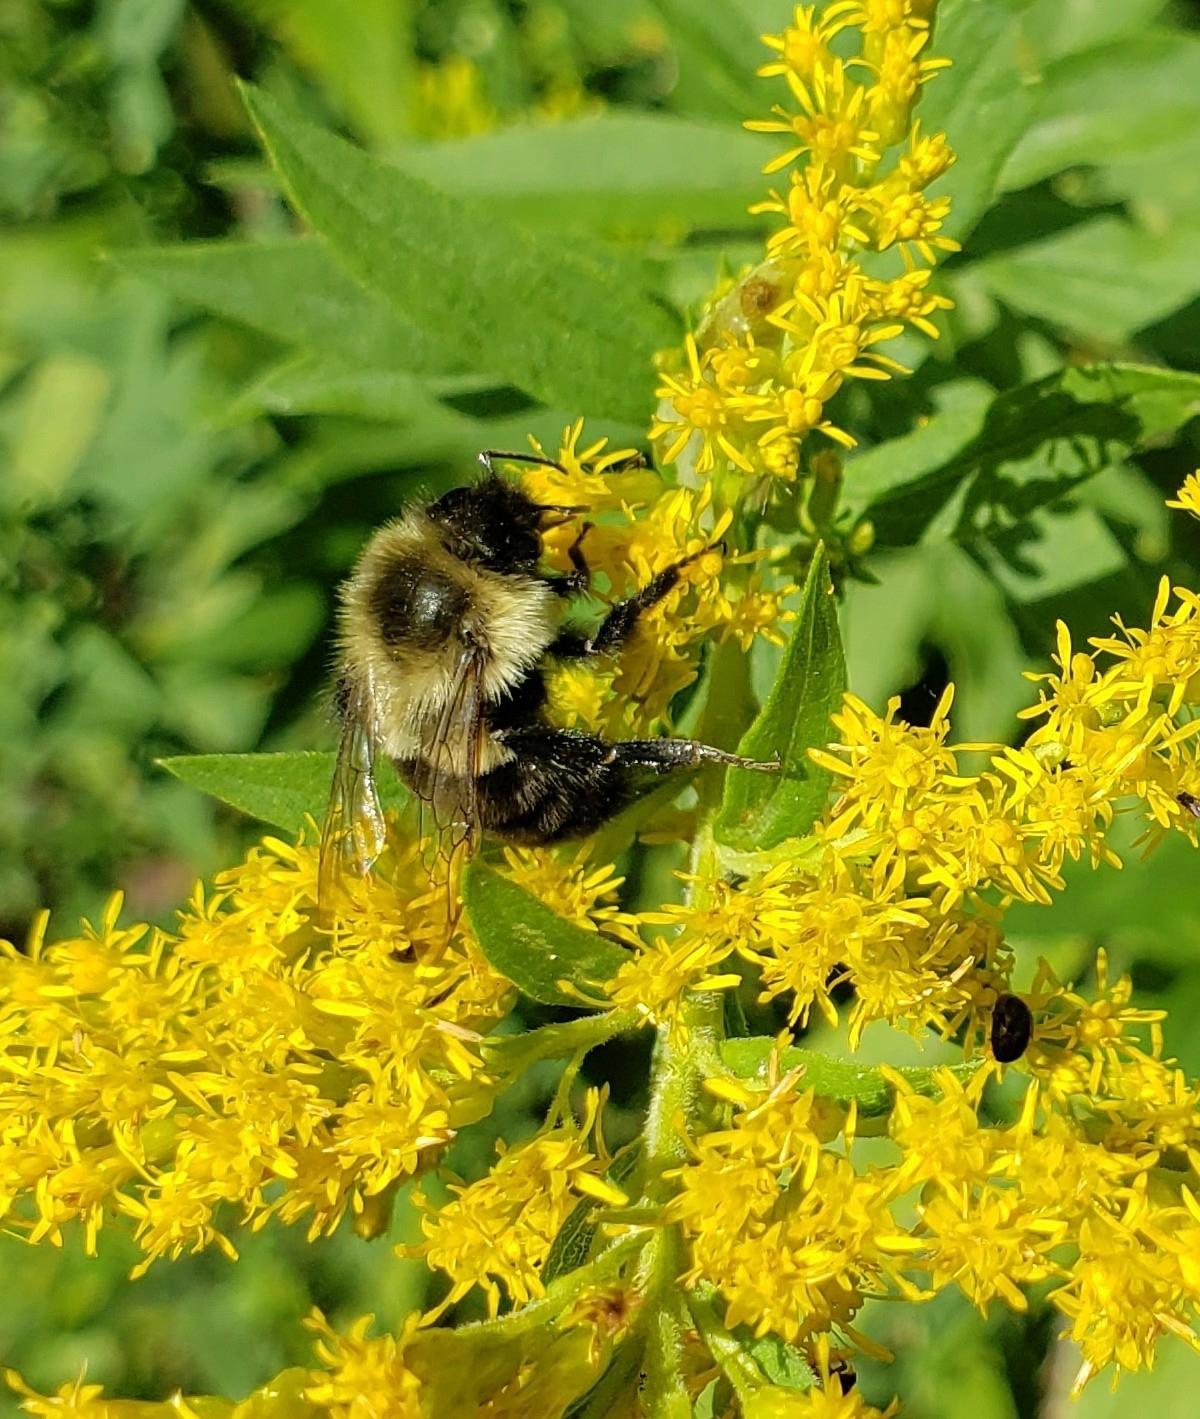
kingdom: Animalia
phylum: Arthropoda
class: Insecta
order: Hymenoptera
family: Apidae
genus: Bombus
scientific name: Bombus impatiens
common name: Common eastern bumble bee
